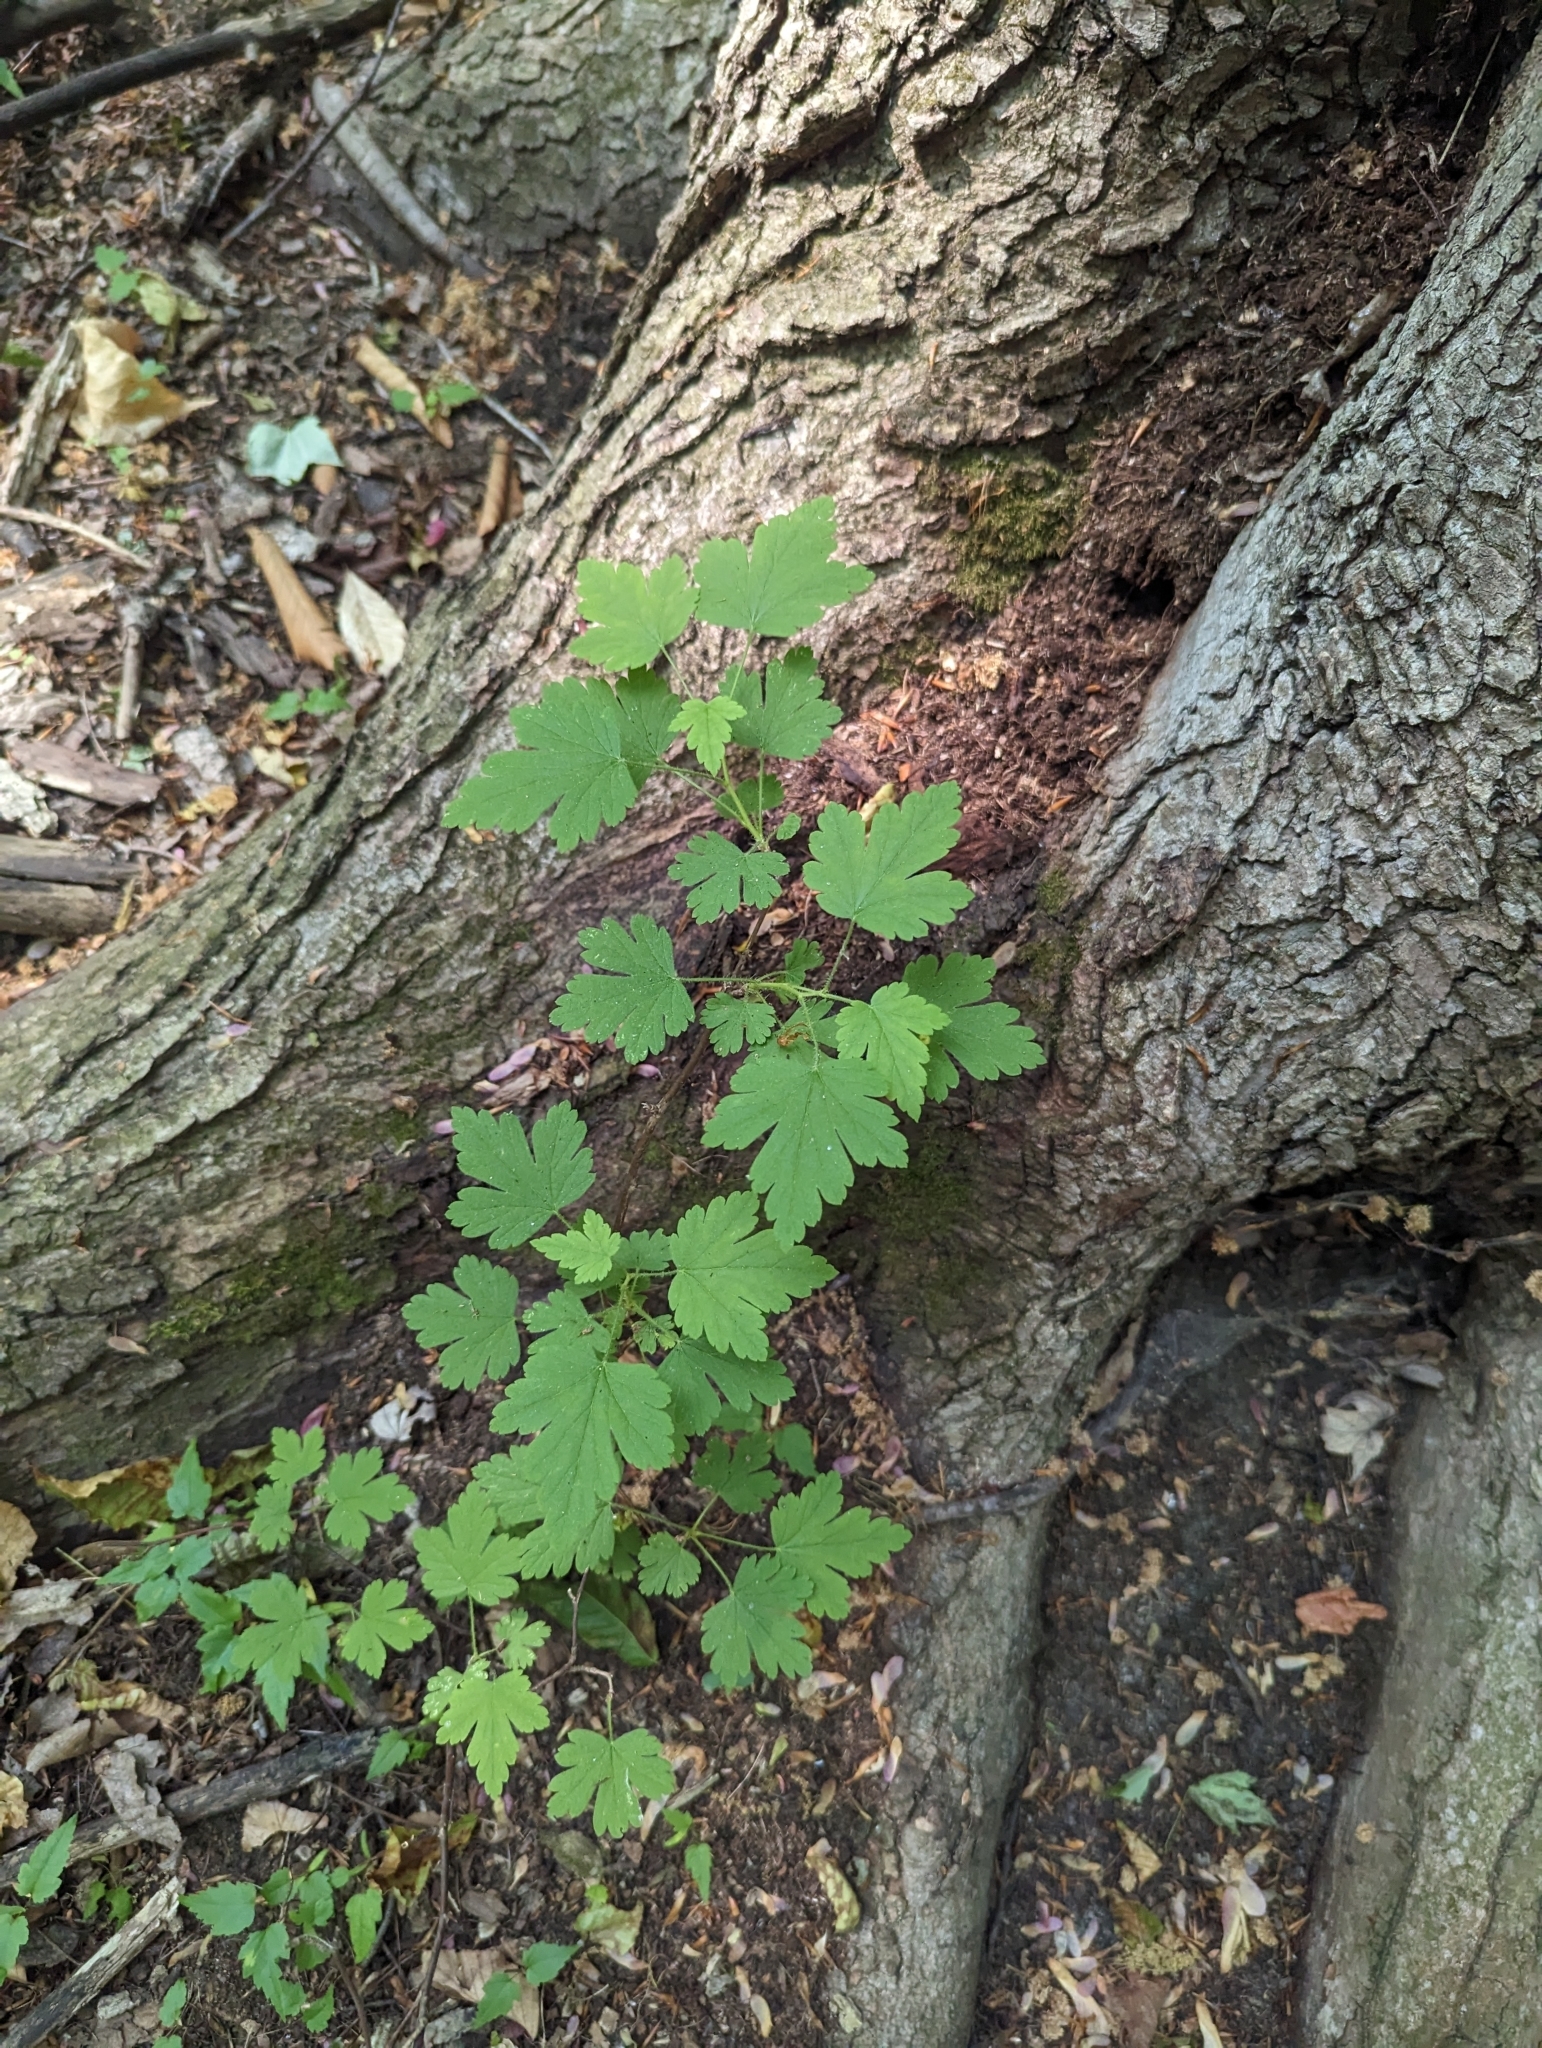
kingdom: Plantae
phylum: Tracheophyta
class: Magnoliopsida
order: Saxifragales
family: Grossulariaceae
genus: Ribes
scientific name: Ribes cynosbati
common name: American gooseberry
